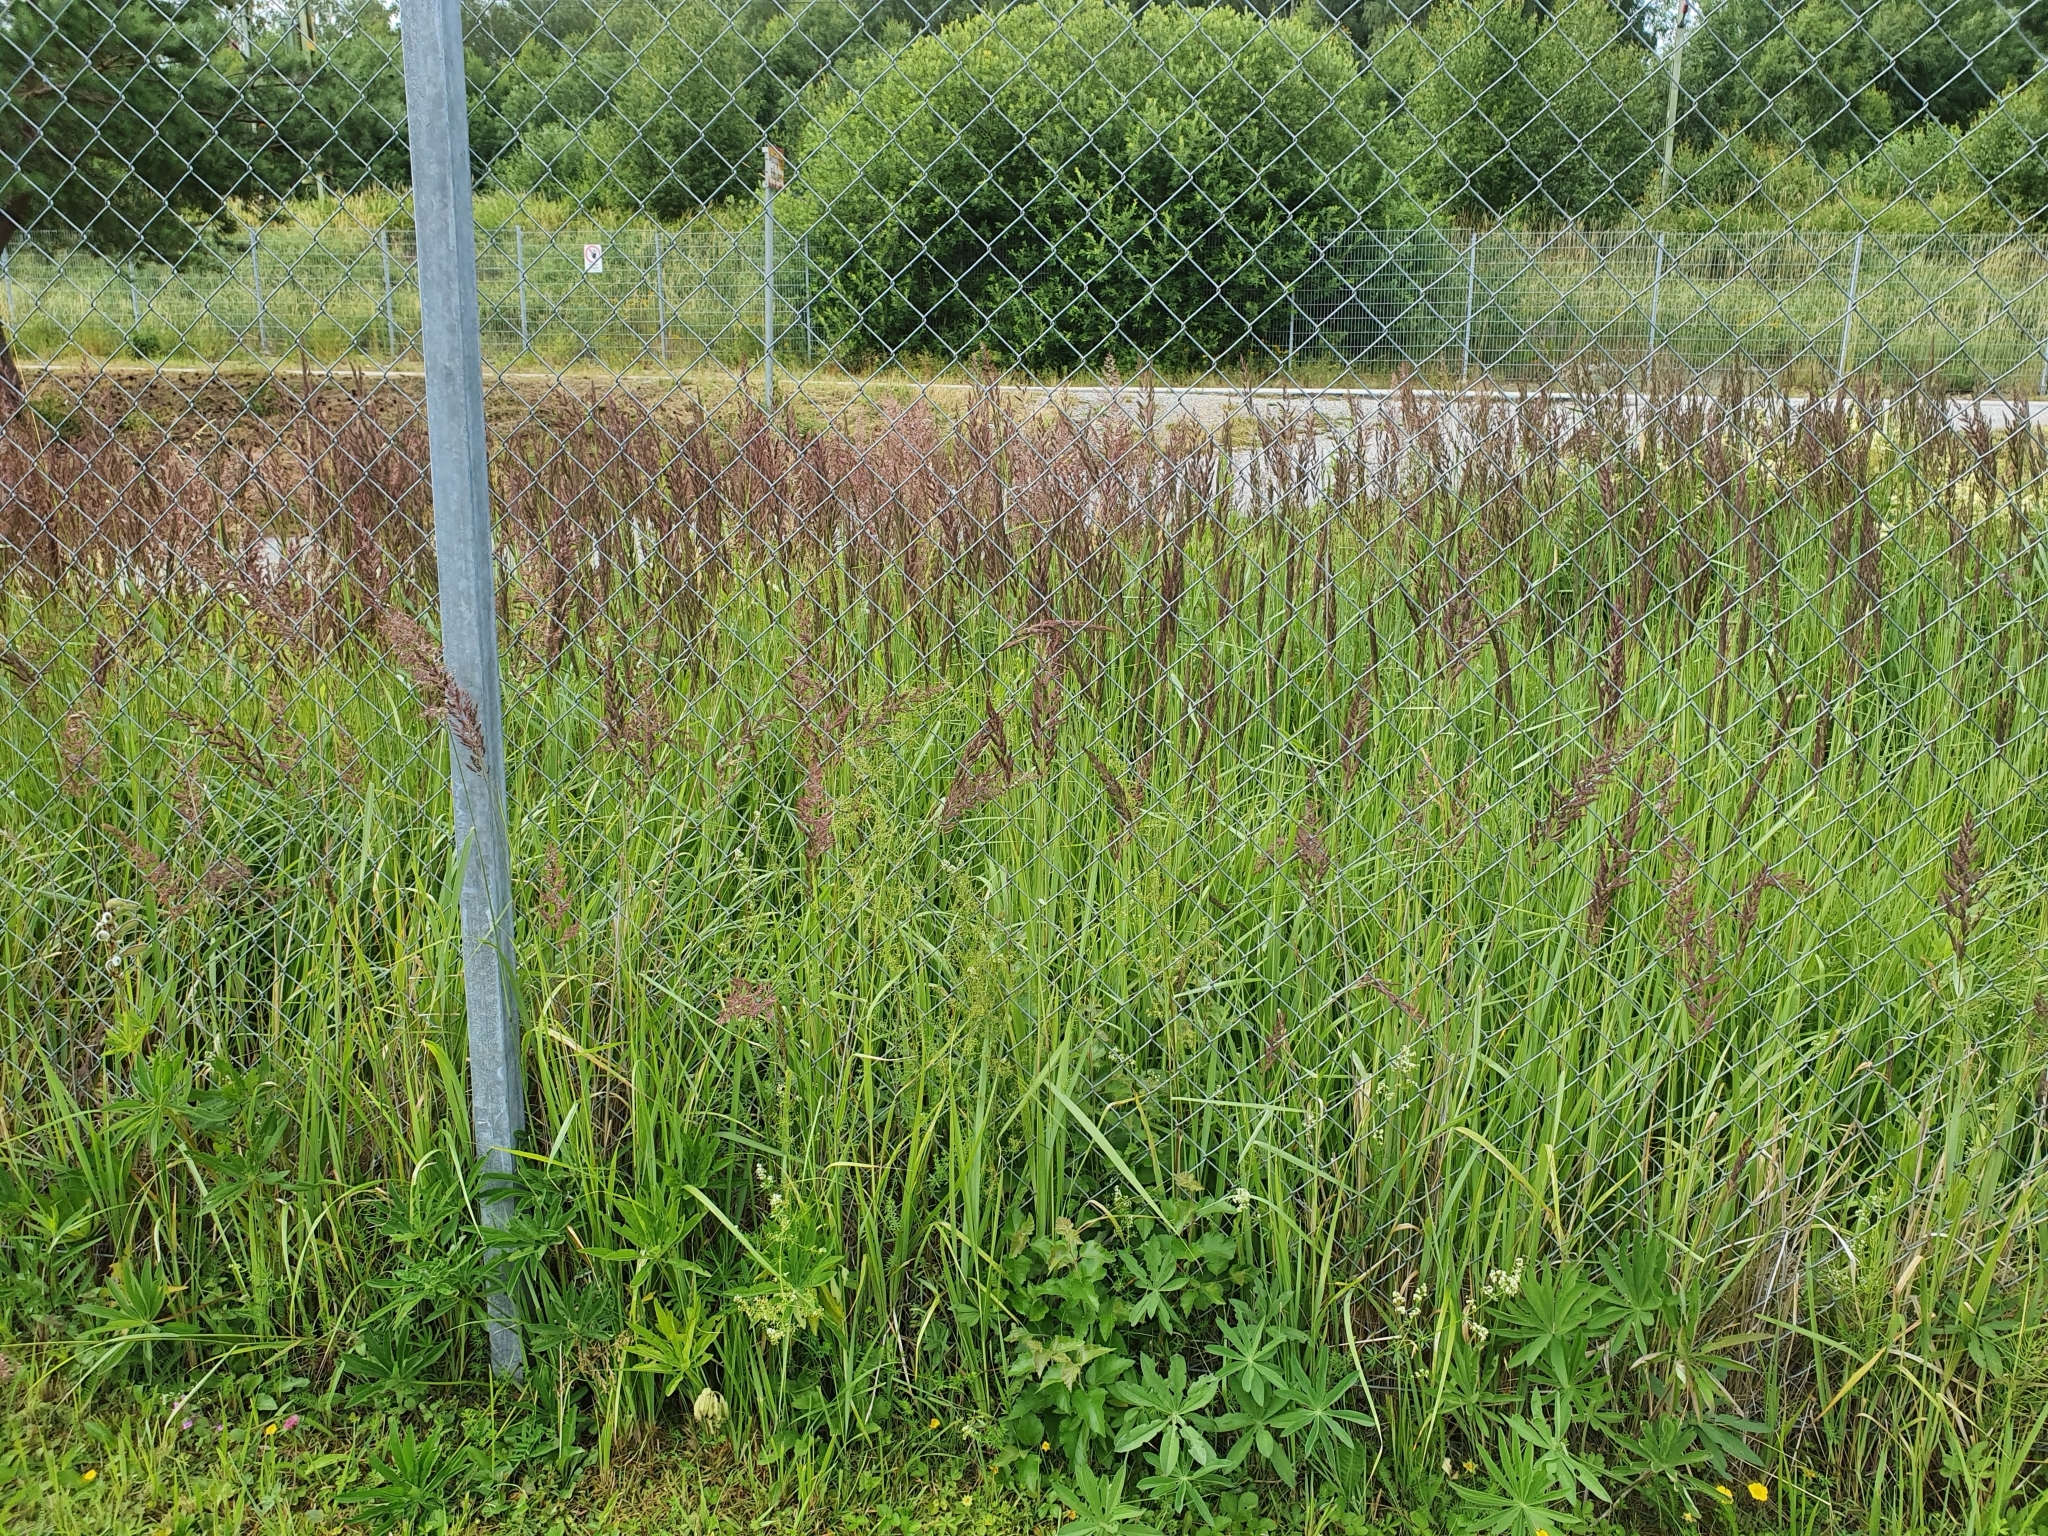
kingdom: Plantae
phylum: Tracheophyta
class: Liliopsida
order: Poales
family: Poaceae
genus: Calamagrostis
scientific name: Calamagrostis epigejos
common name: Wood small-reed
